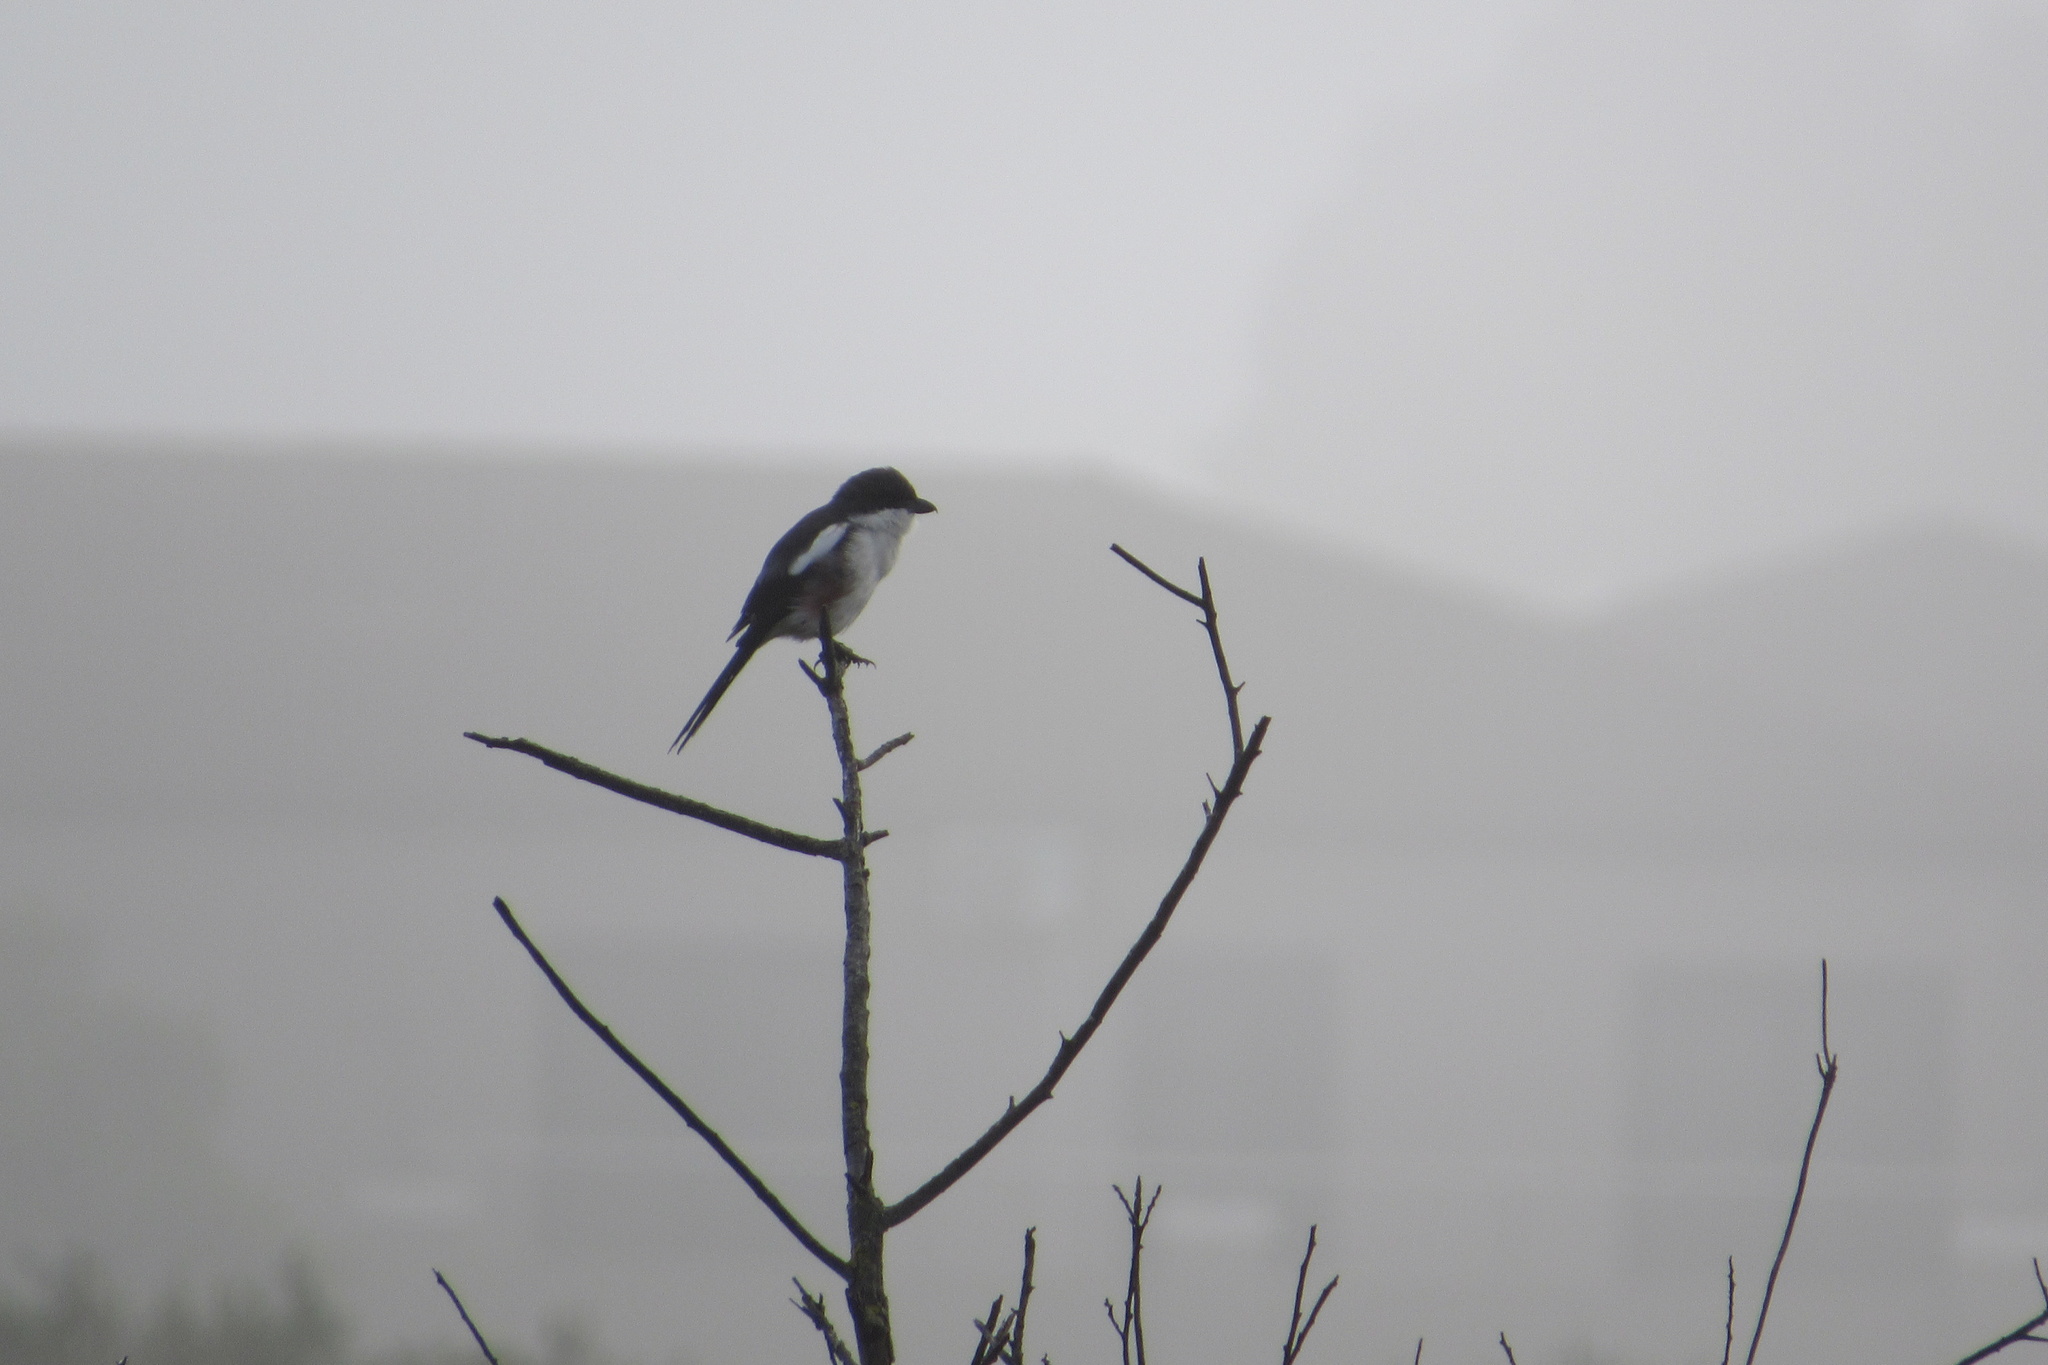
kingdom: Animalia
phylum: Chordata
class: Aves
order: Passeriformes
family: Laniidae
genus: Lanius
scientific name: Lanius collaris
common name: Southern fiscal
